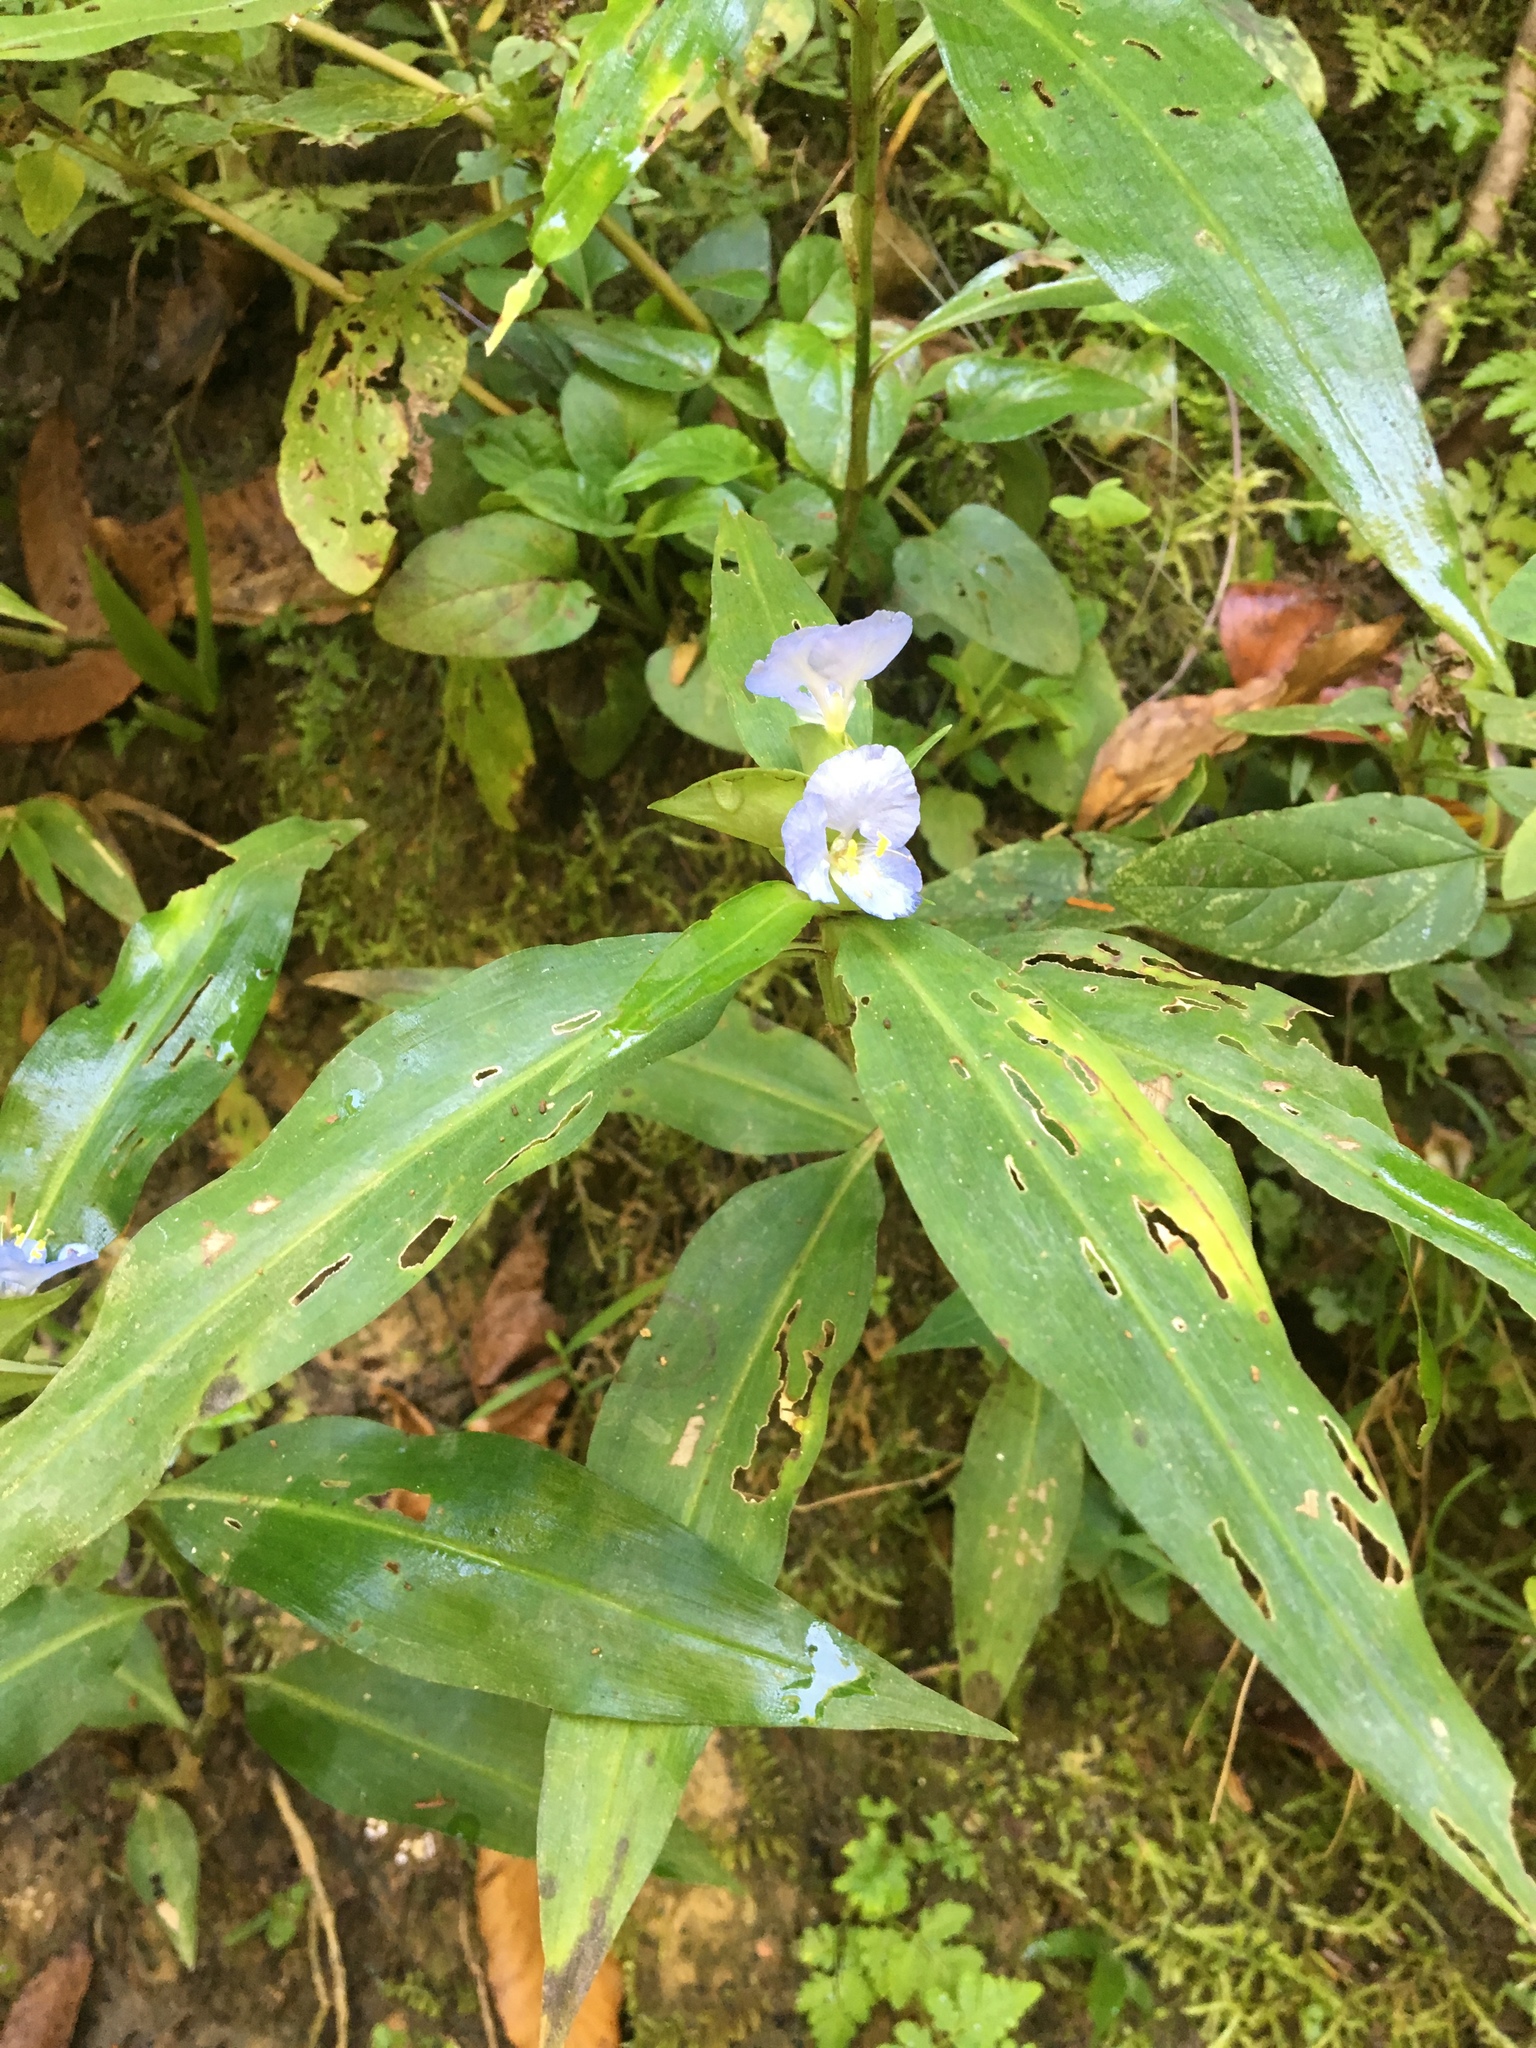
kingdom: Plantae
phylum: Tracheophyta
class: Liliopsida
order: Commelinales
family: Commelinaceae
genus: Commelina
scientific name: Commelina virginica
